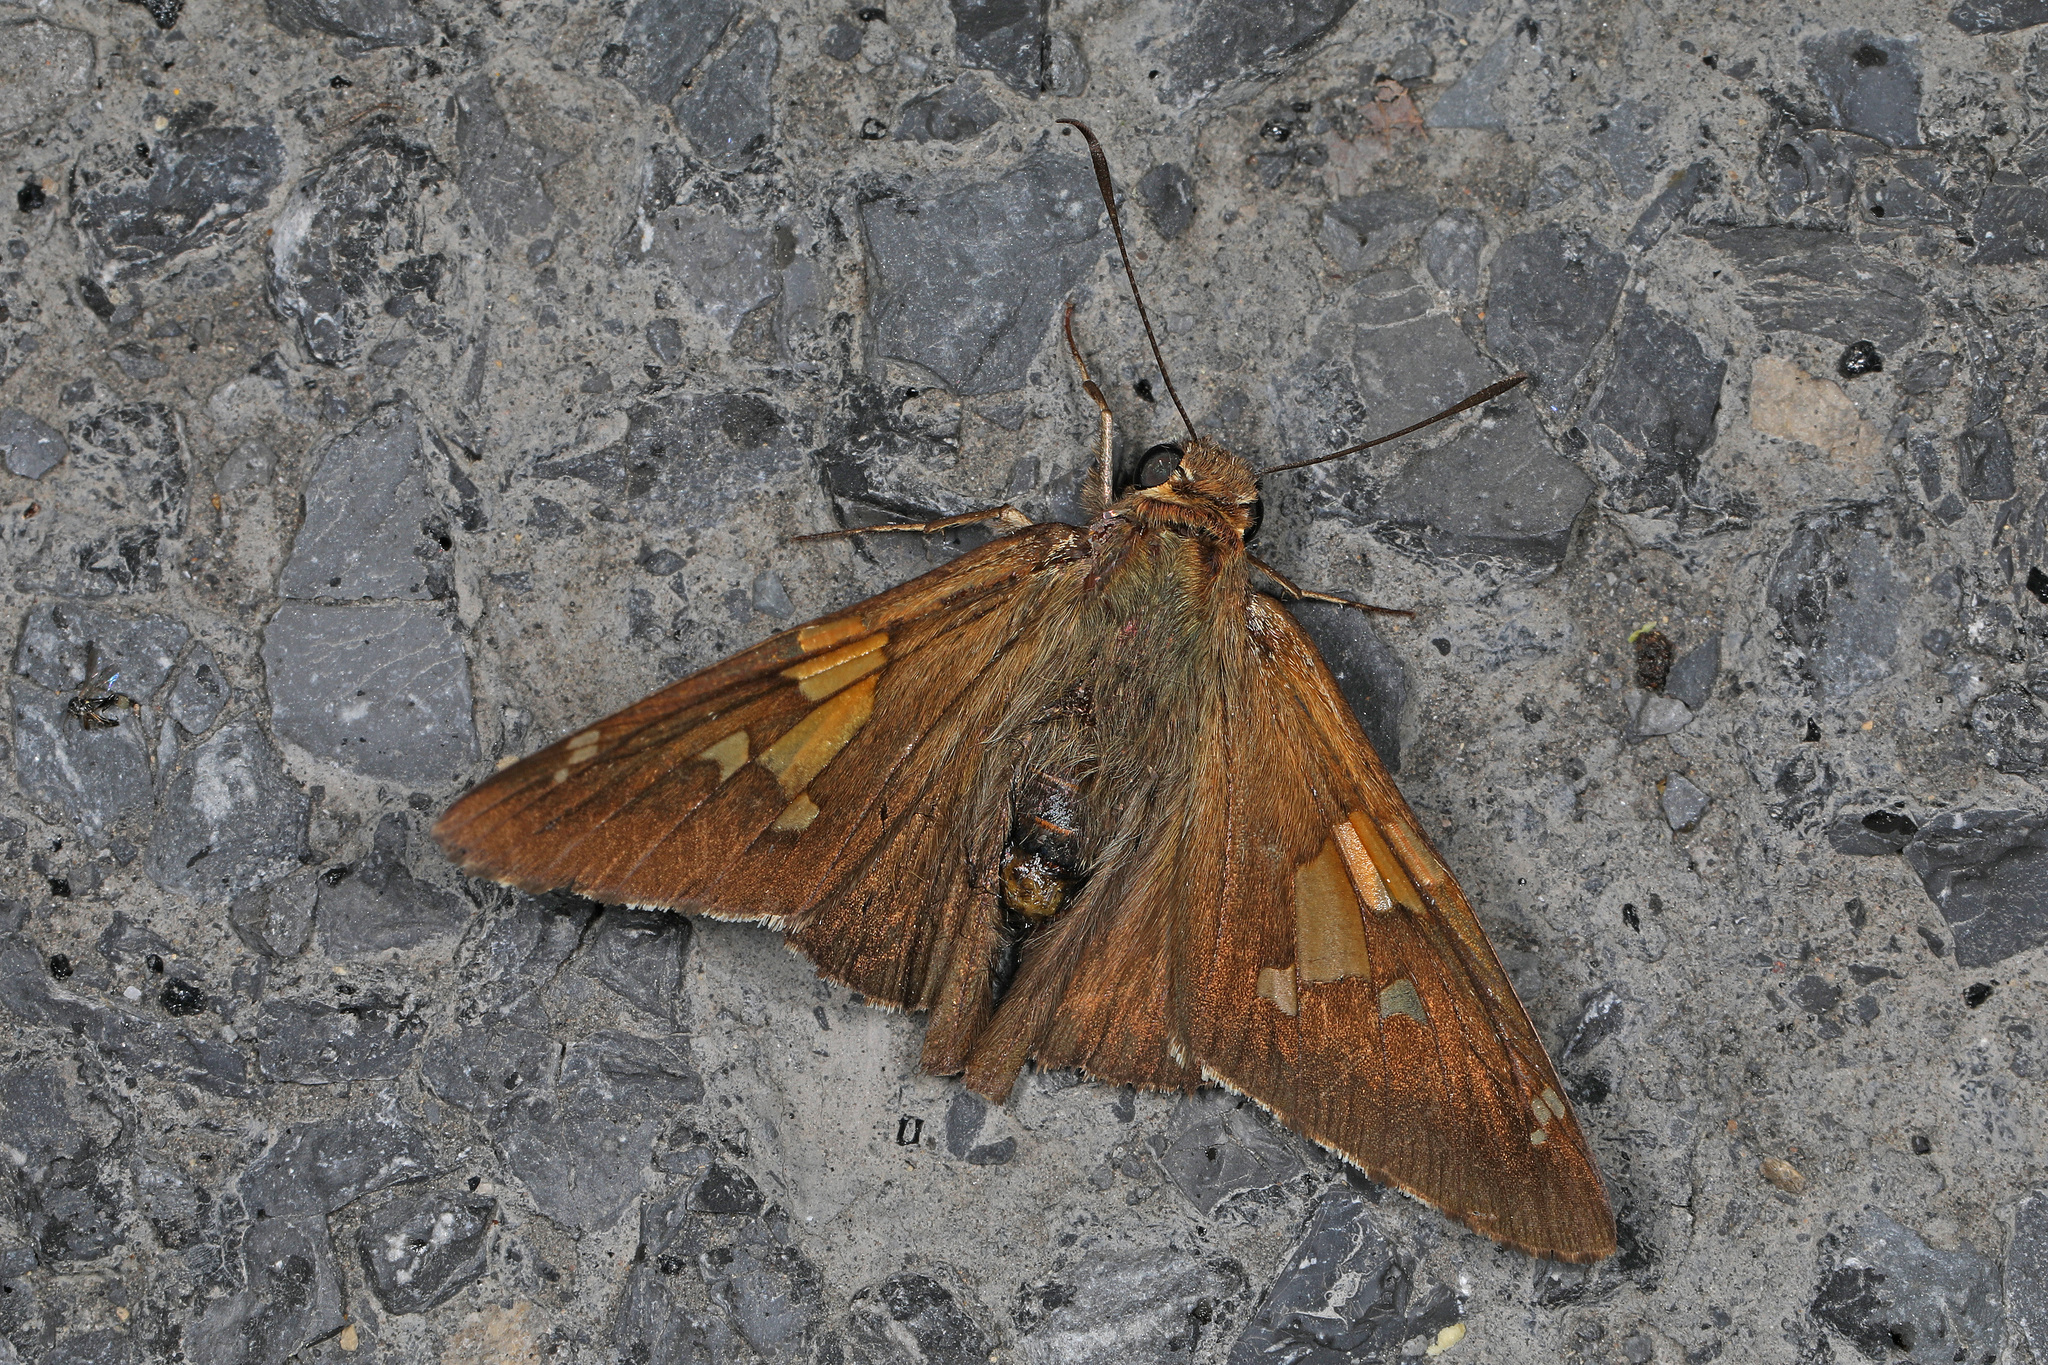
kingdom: Animalia
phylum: Arthropoda
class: Insecta
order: Lepidoptera
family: Hesperiidae
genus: Epargyreus
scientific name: Epargyreus clarus
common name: Silver-spotted skipper
